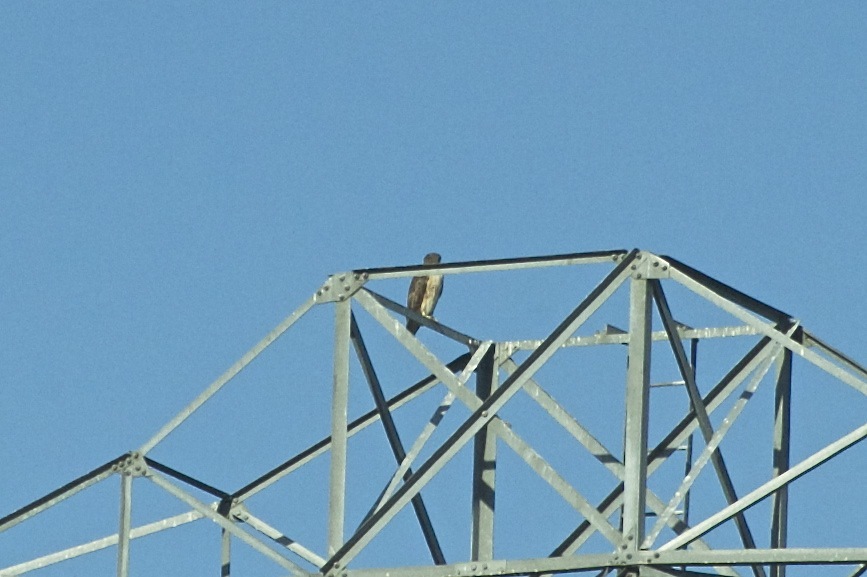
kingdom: Animalia
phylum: Chordata
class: Aves
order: Accipitriformes
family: Accipitridae
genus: Buteo
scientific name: Buteo jamaicensis
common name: Red-tailed hawk
